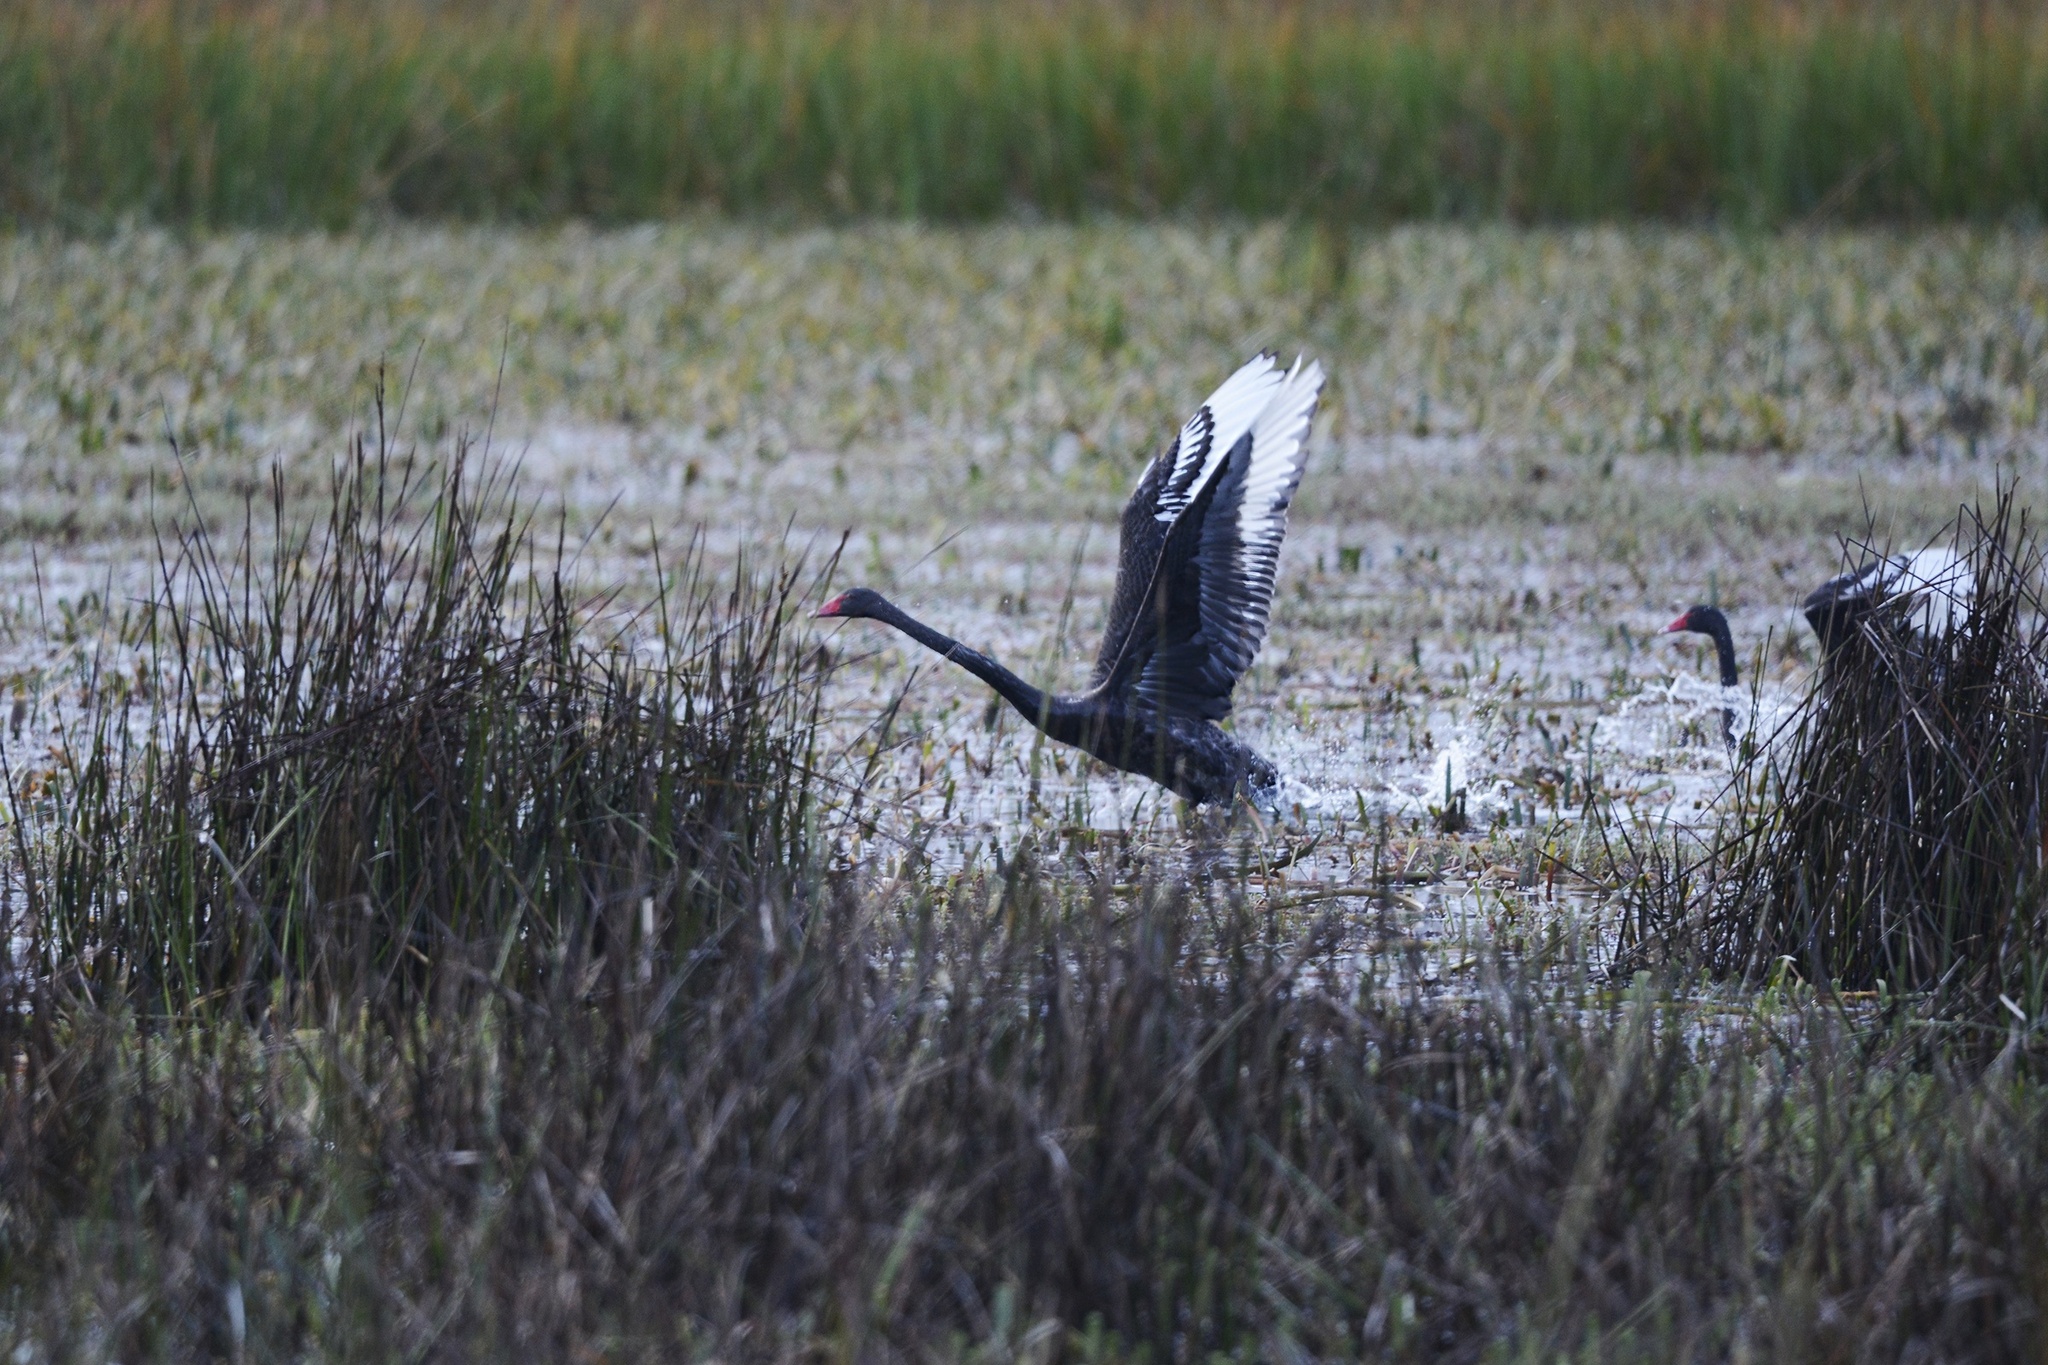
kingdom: Animalia
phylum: Chordata
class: Aves
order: Anseriformes
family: Anatidae
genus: Cygnus
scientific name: Cygnus atratus
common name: Black swan
